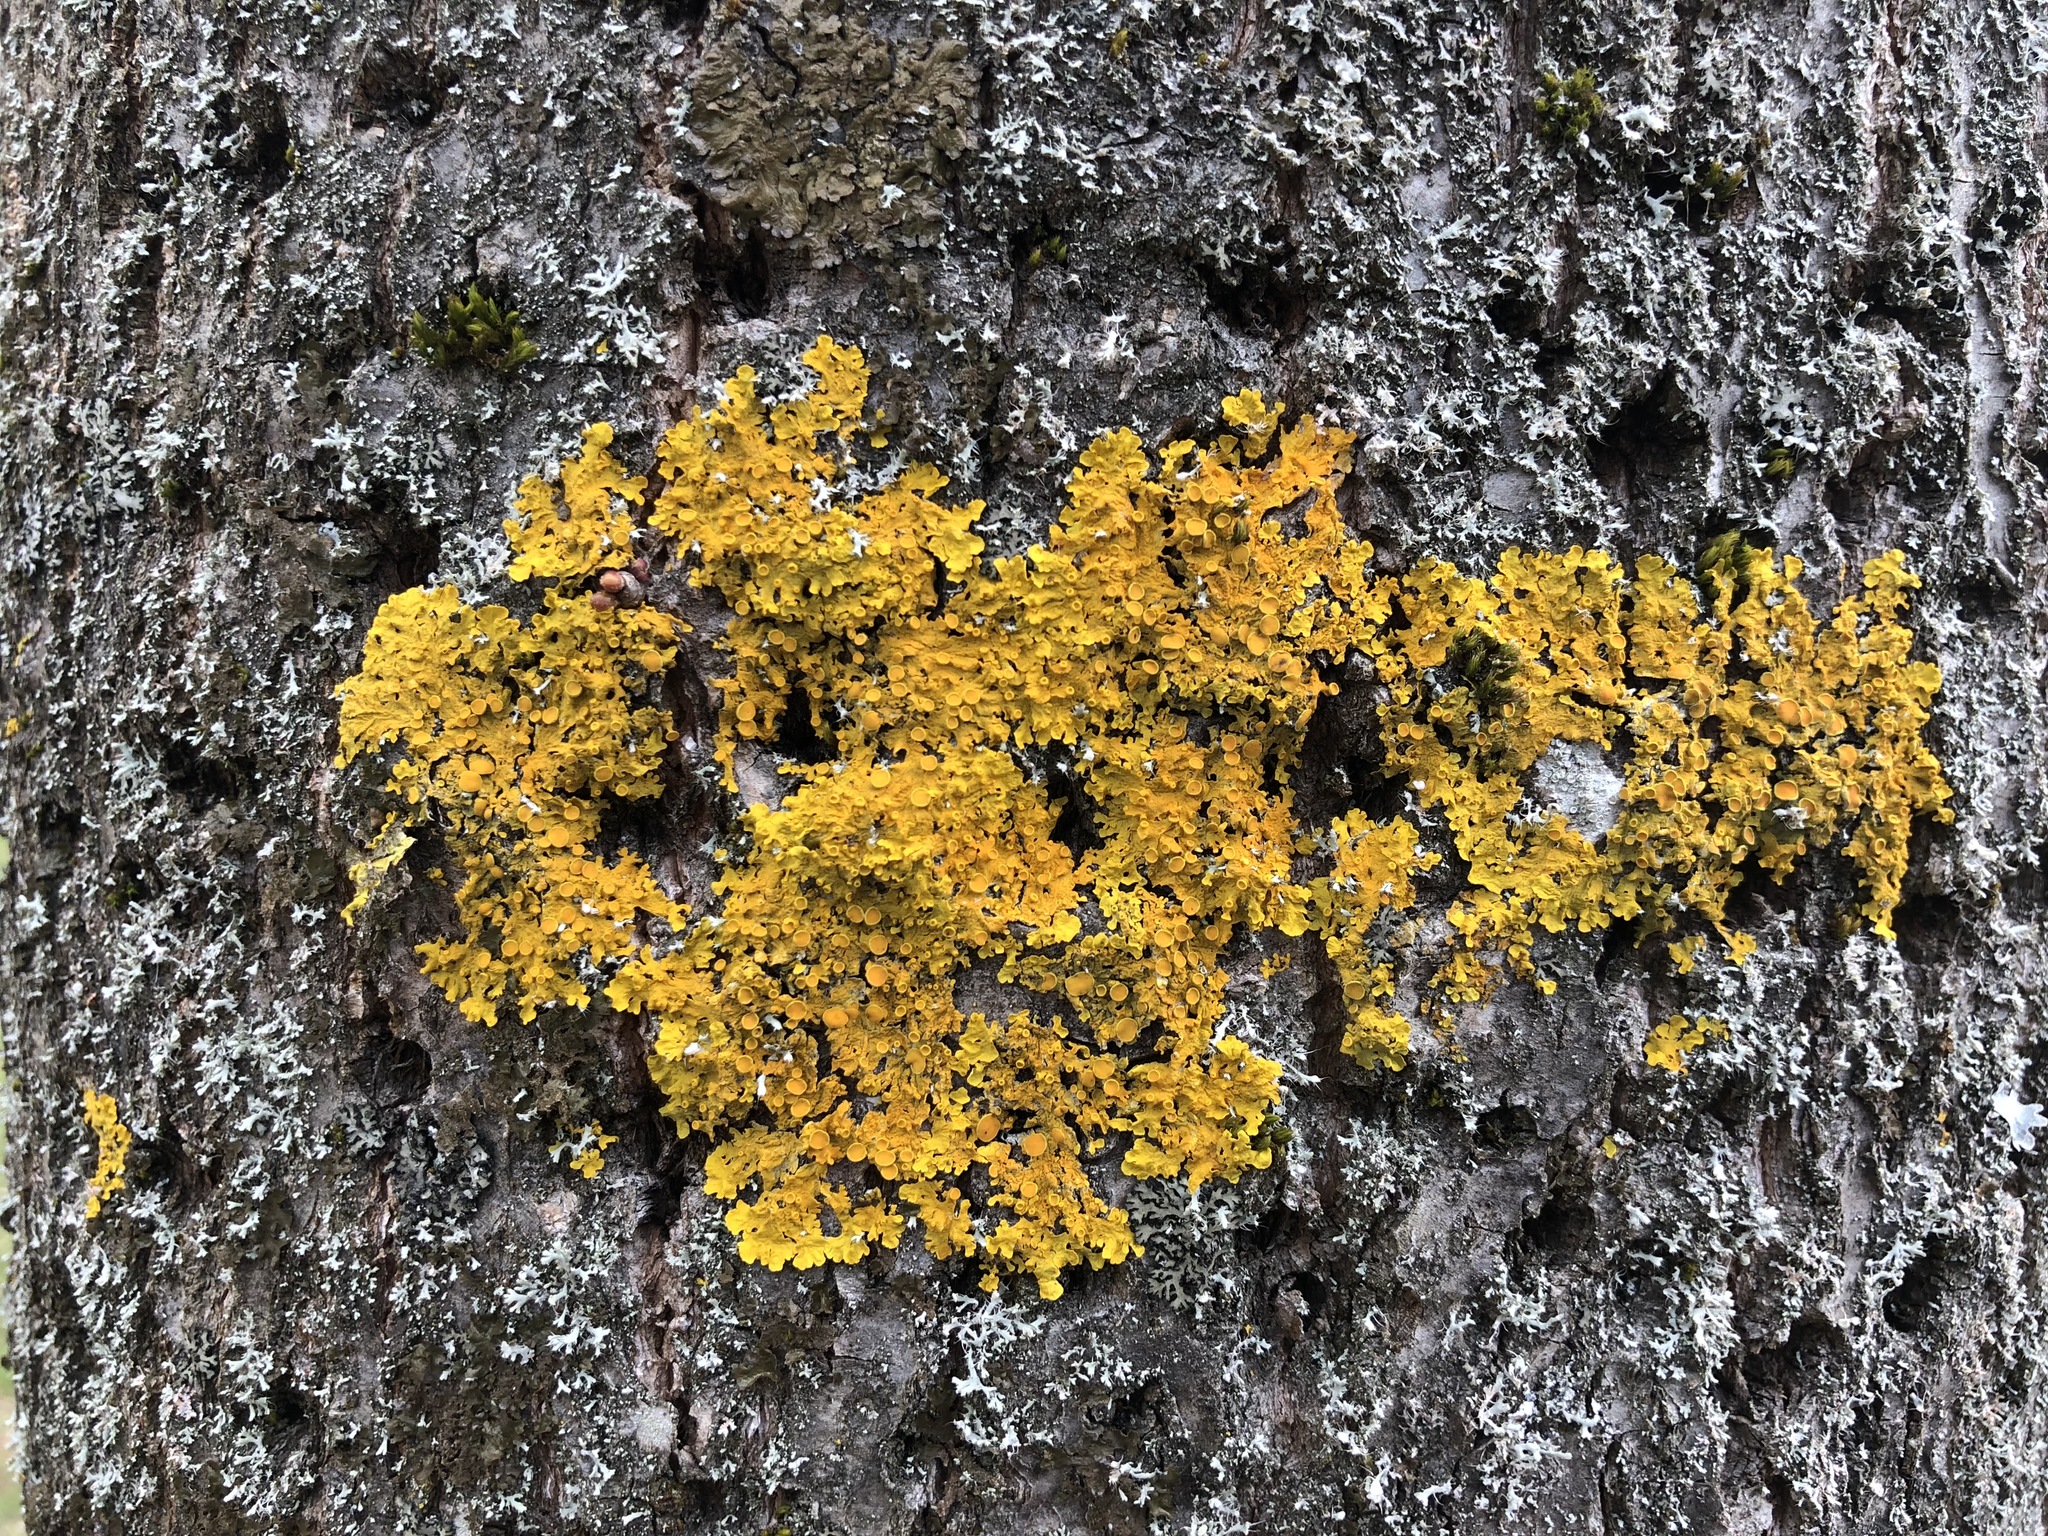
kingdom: Fungi
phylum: Ascomycota
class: Lecanoromycetes
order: Teloschistales
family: Teloschistaceae
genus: Xanthoria
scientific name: Xanthoria parietina
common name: Common orange lichen
